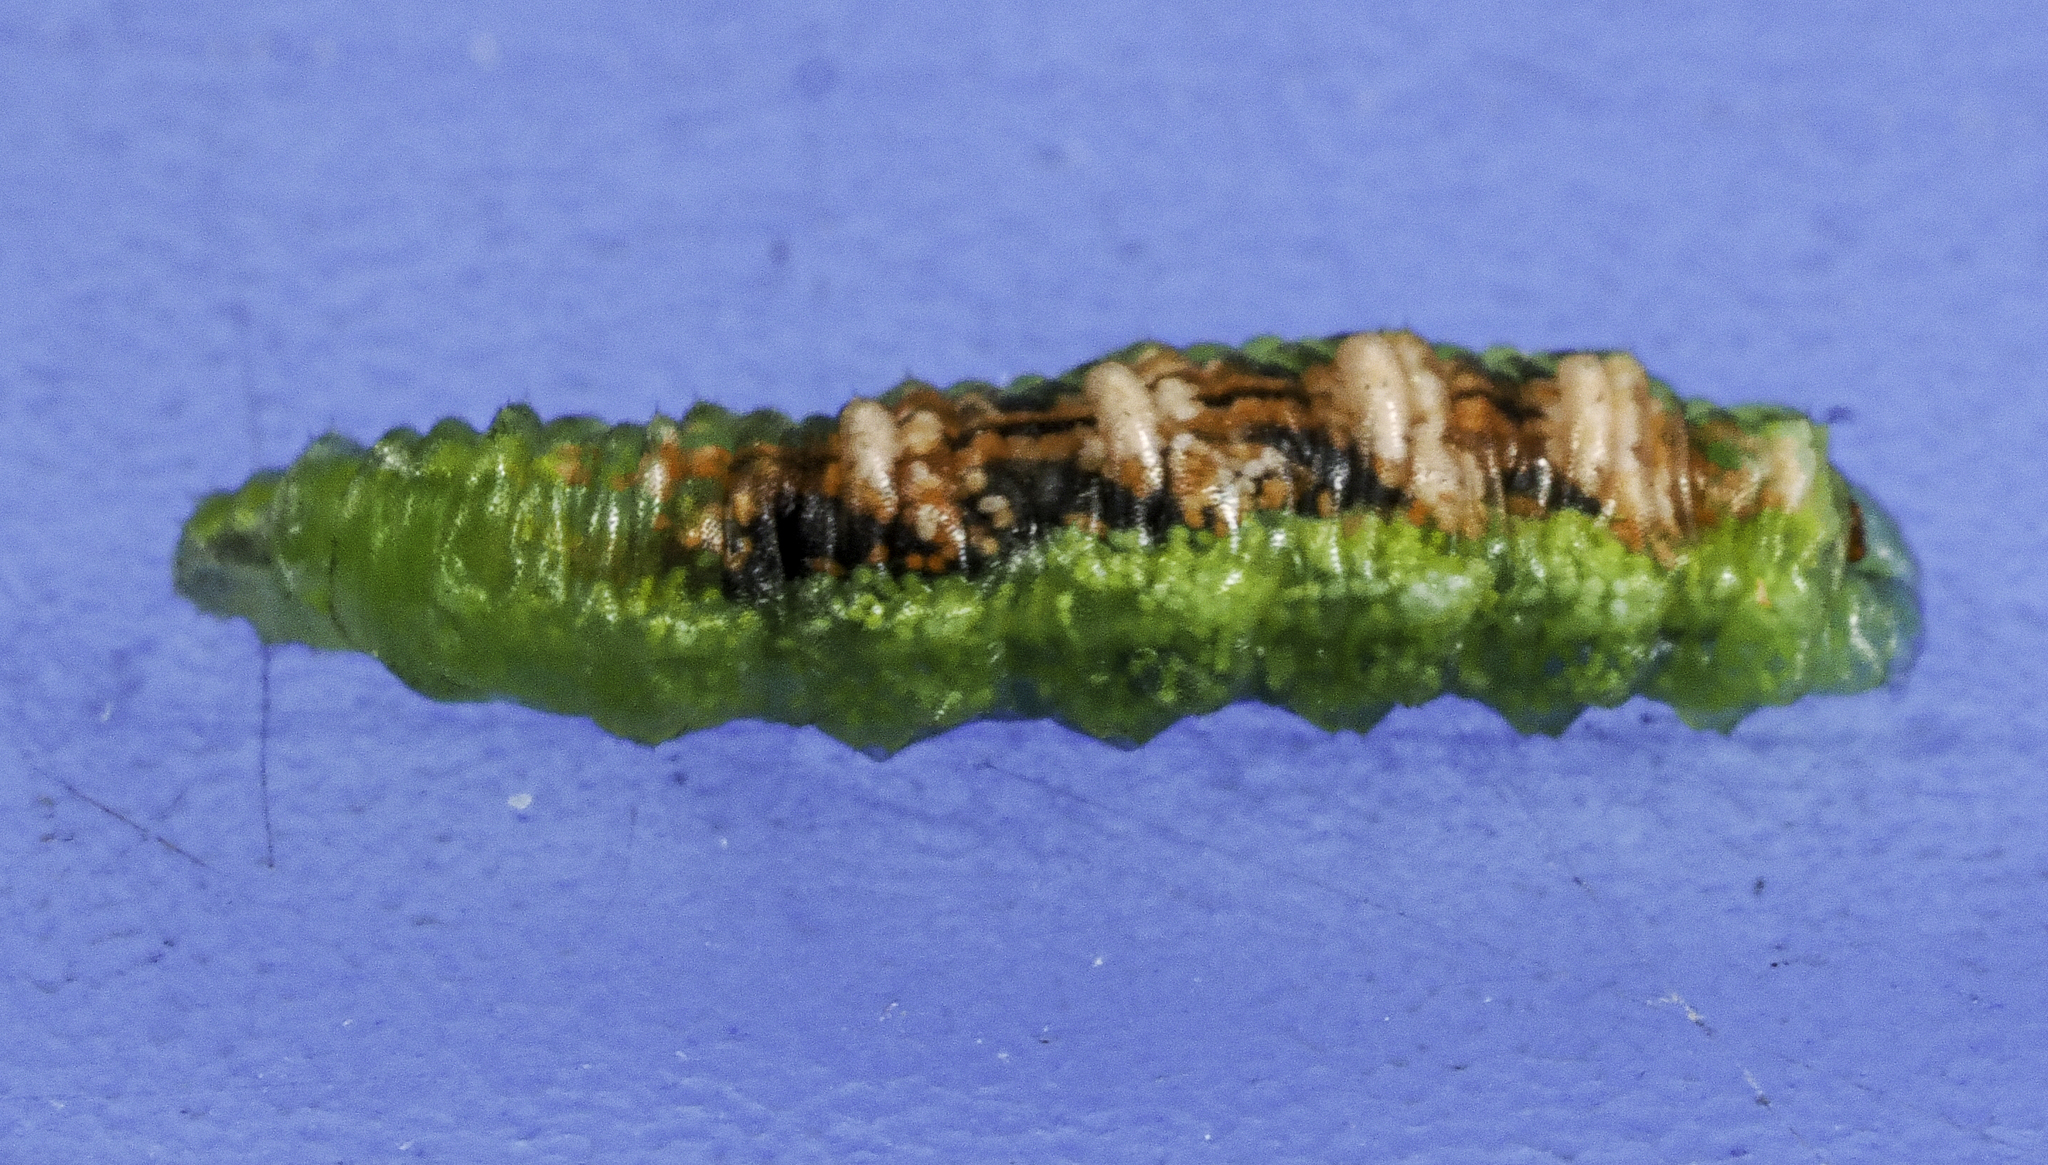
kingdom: Animalia
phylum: Arthropoda
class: Insecta
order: Diptera
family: Syrphidae
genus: Eupeodes
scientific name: Eupeodes pomus
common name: Short-tailed aphideater
